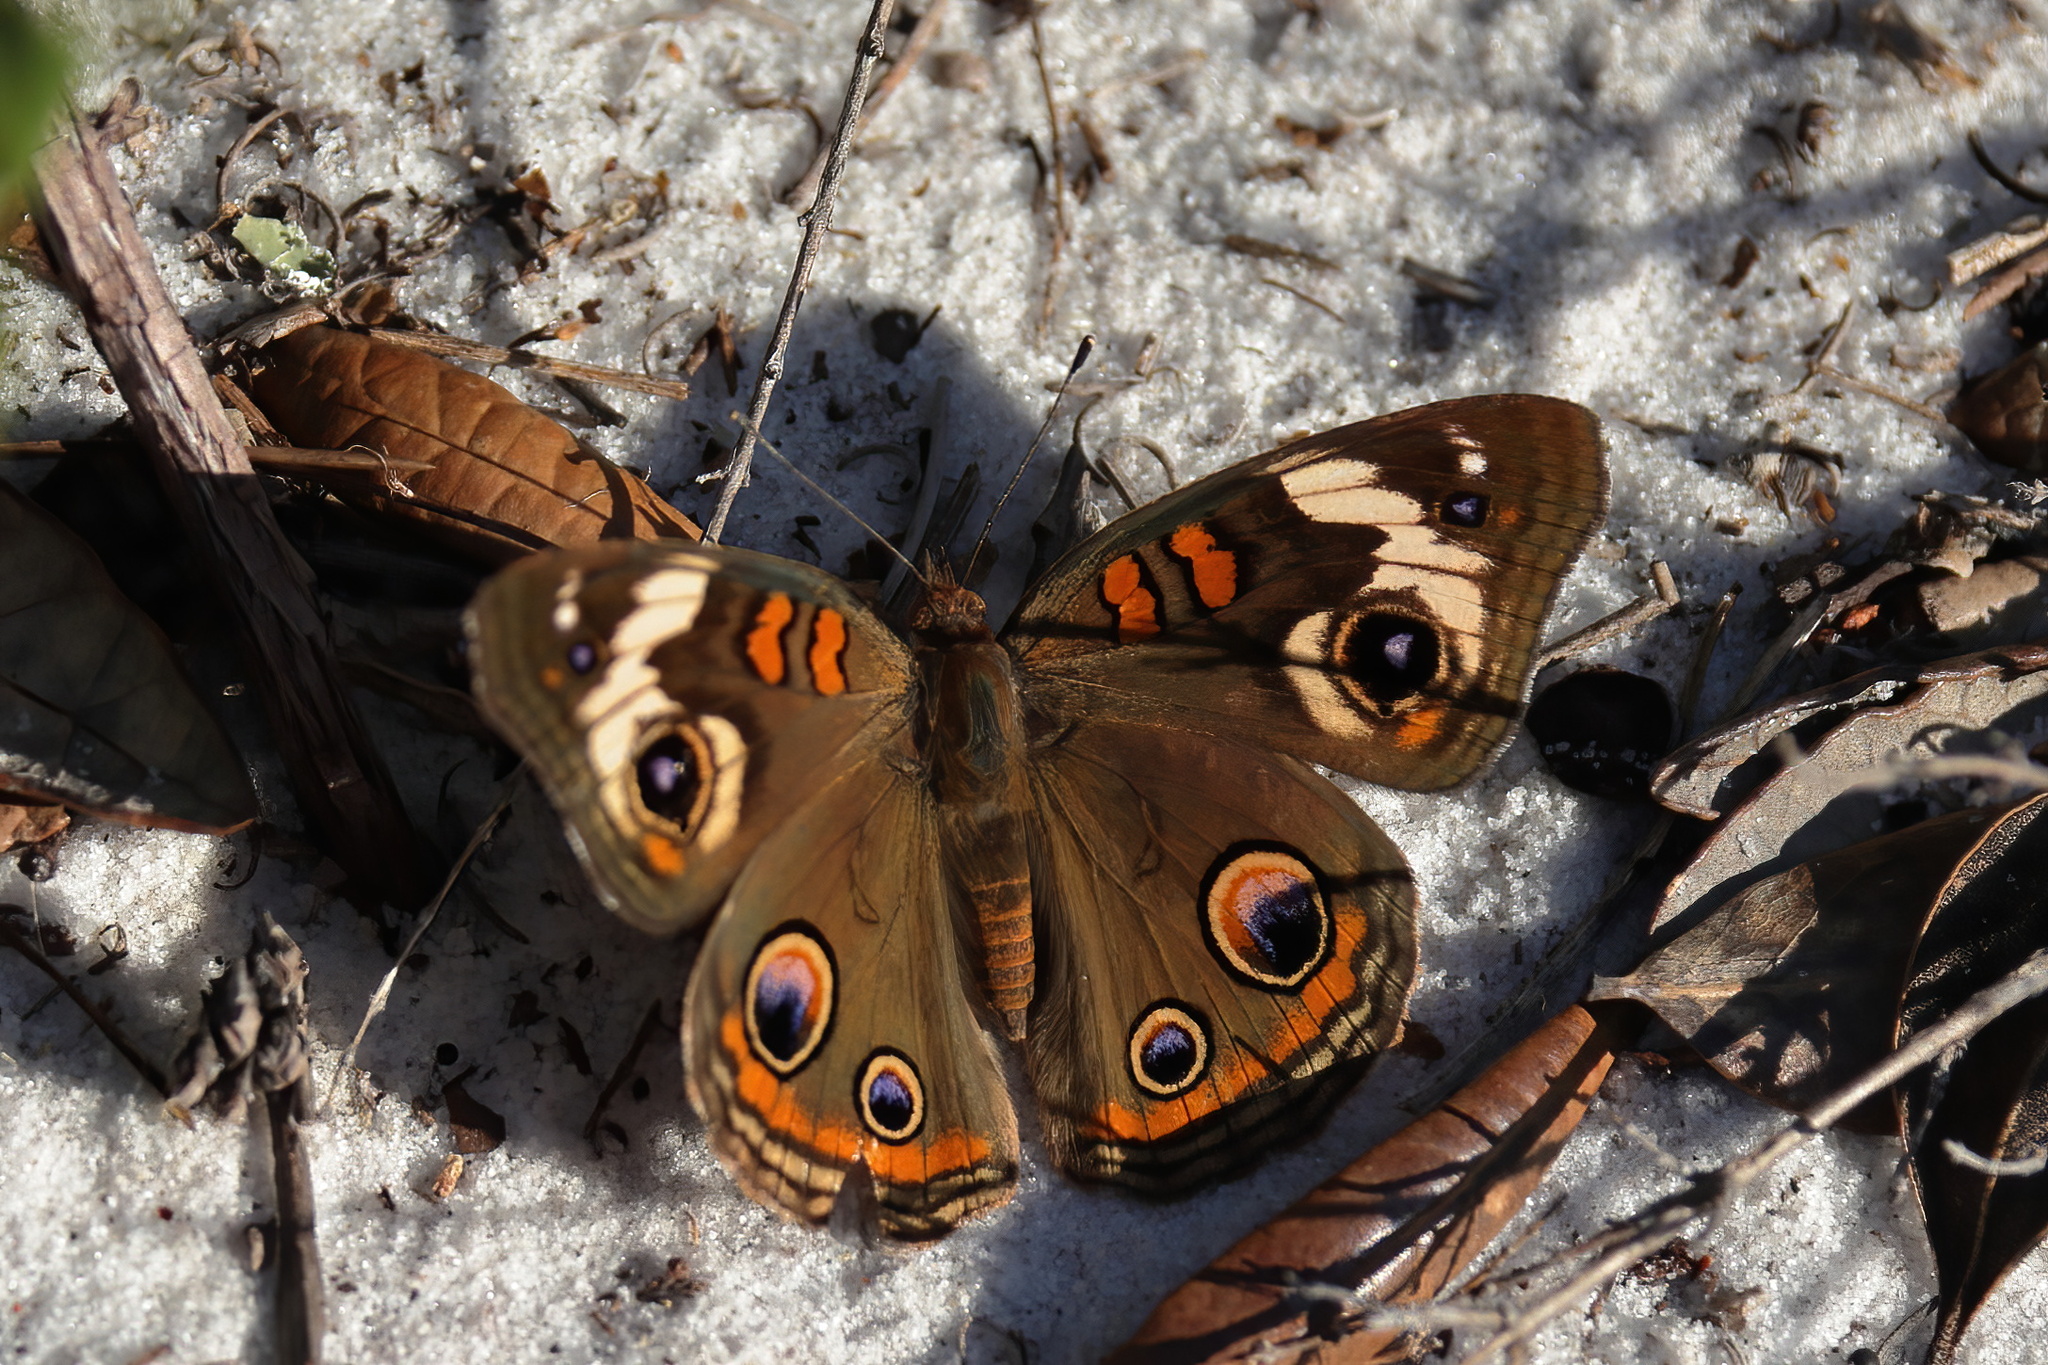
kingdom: Animalia
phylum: Arthropoda
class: Insecta
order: Lepidoptera
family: Nymphalidae
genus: Junonia
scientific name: Junonia coenia
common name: Common buckeye
